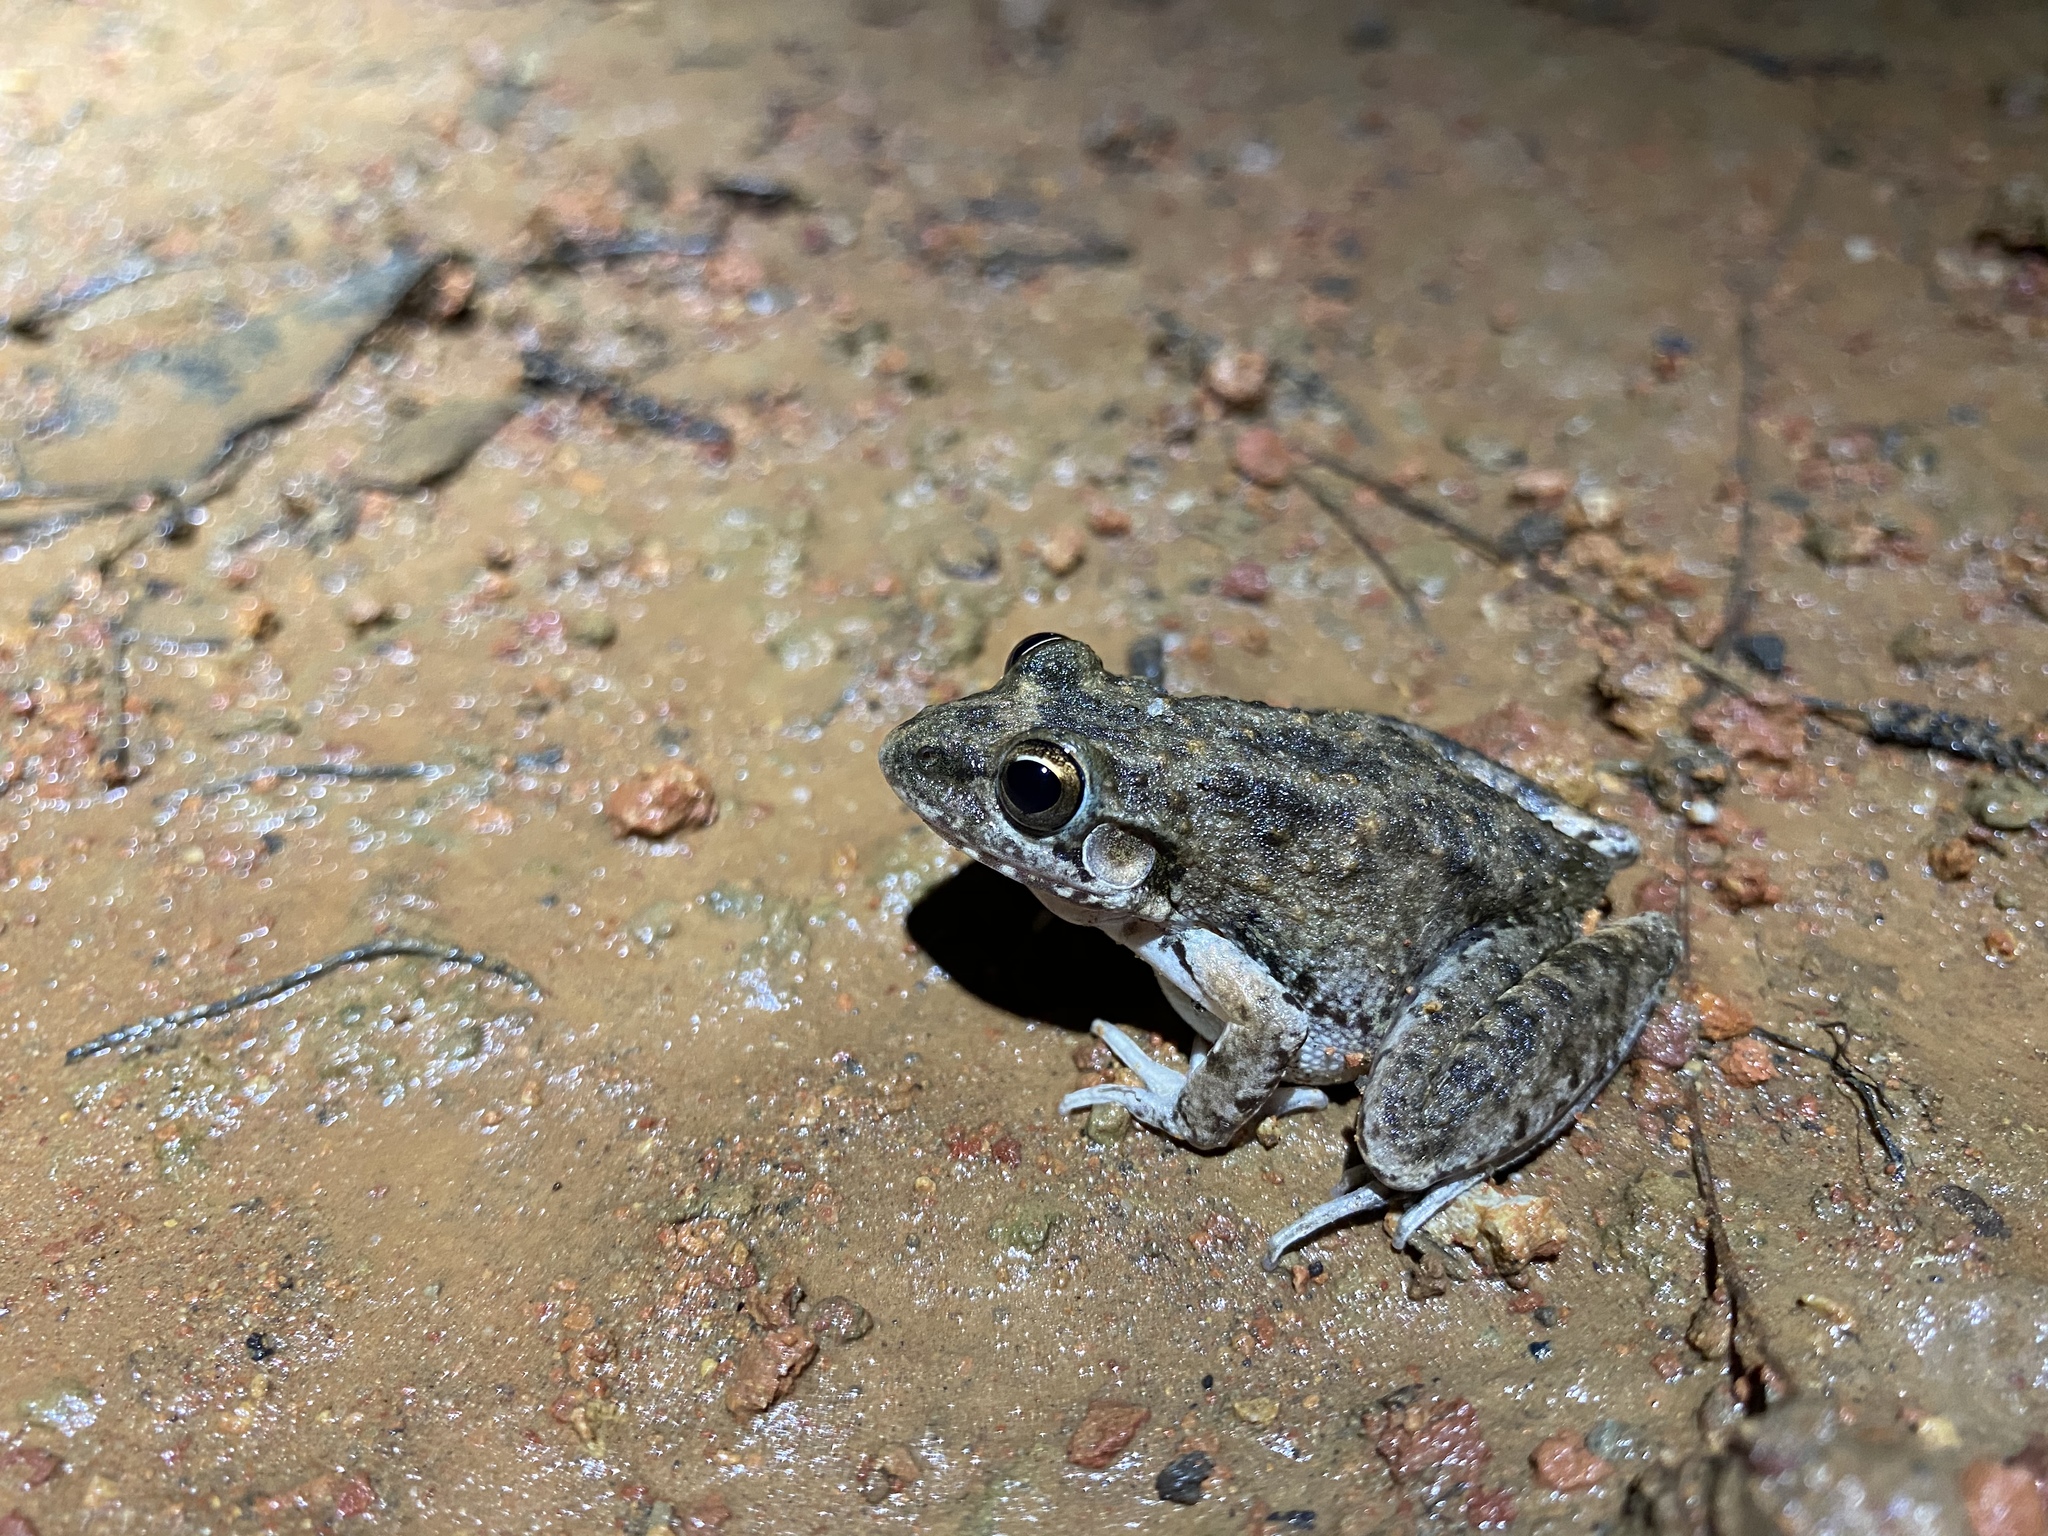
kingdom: Animalia
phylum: Chordata
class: Amphibia
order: Anura
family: Pelodryadidae
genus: Litoria
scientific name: Litoria inermis
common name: Bumpy rocket frog
